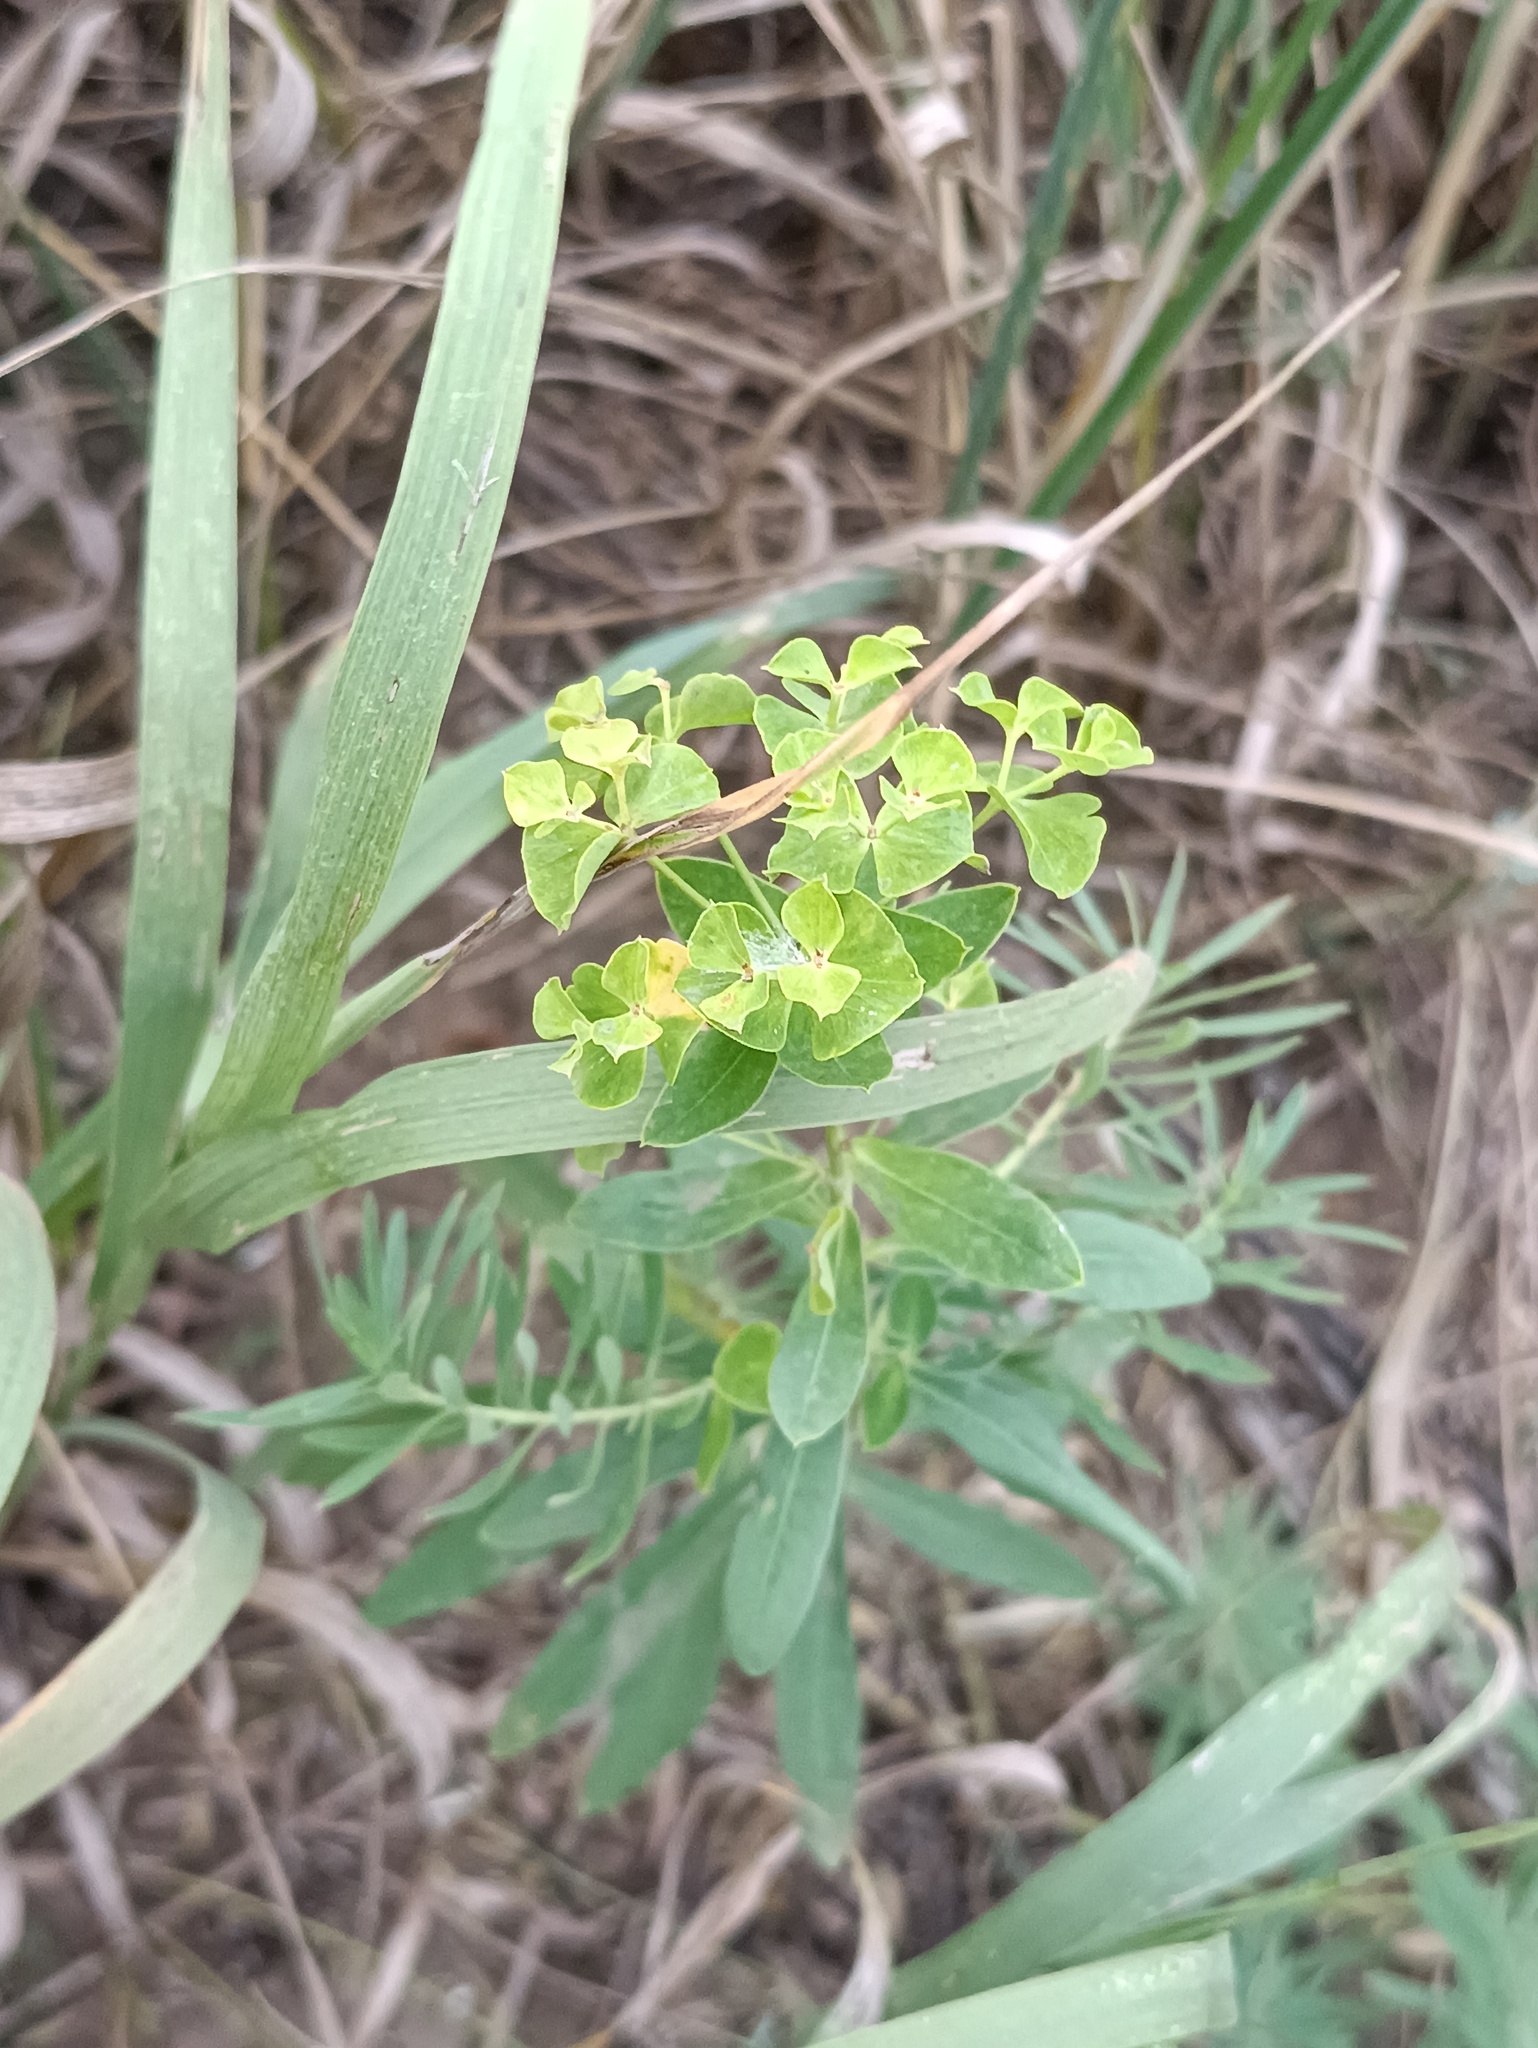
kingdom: Plantae
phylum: Tracheophyta
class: Magnoliopsida
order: Malpighiales
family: Euphorbiaceae
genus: Euphorbia
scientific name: Euphorbia virgata
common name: Leafy spurge
